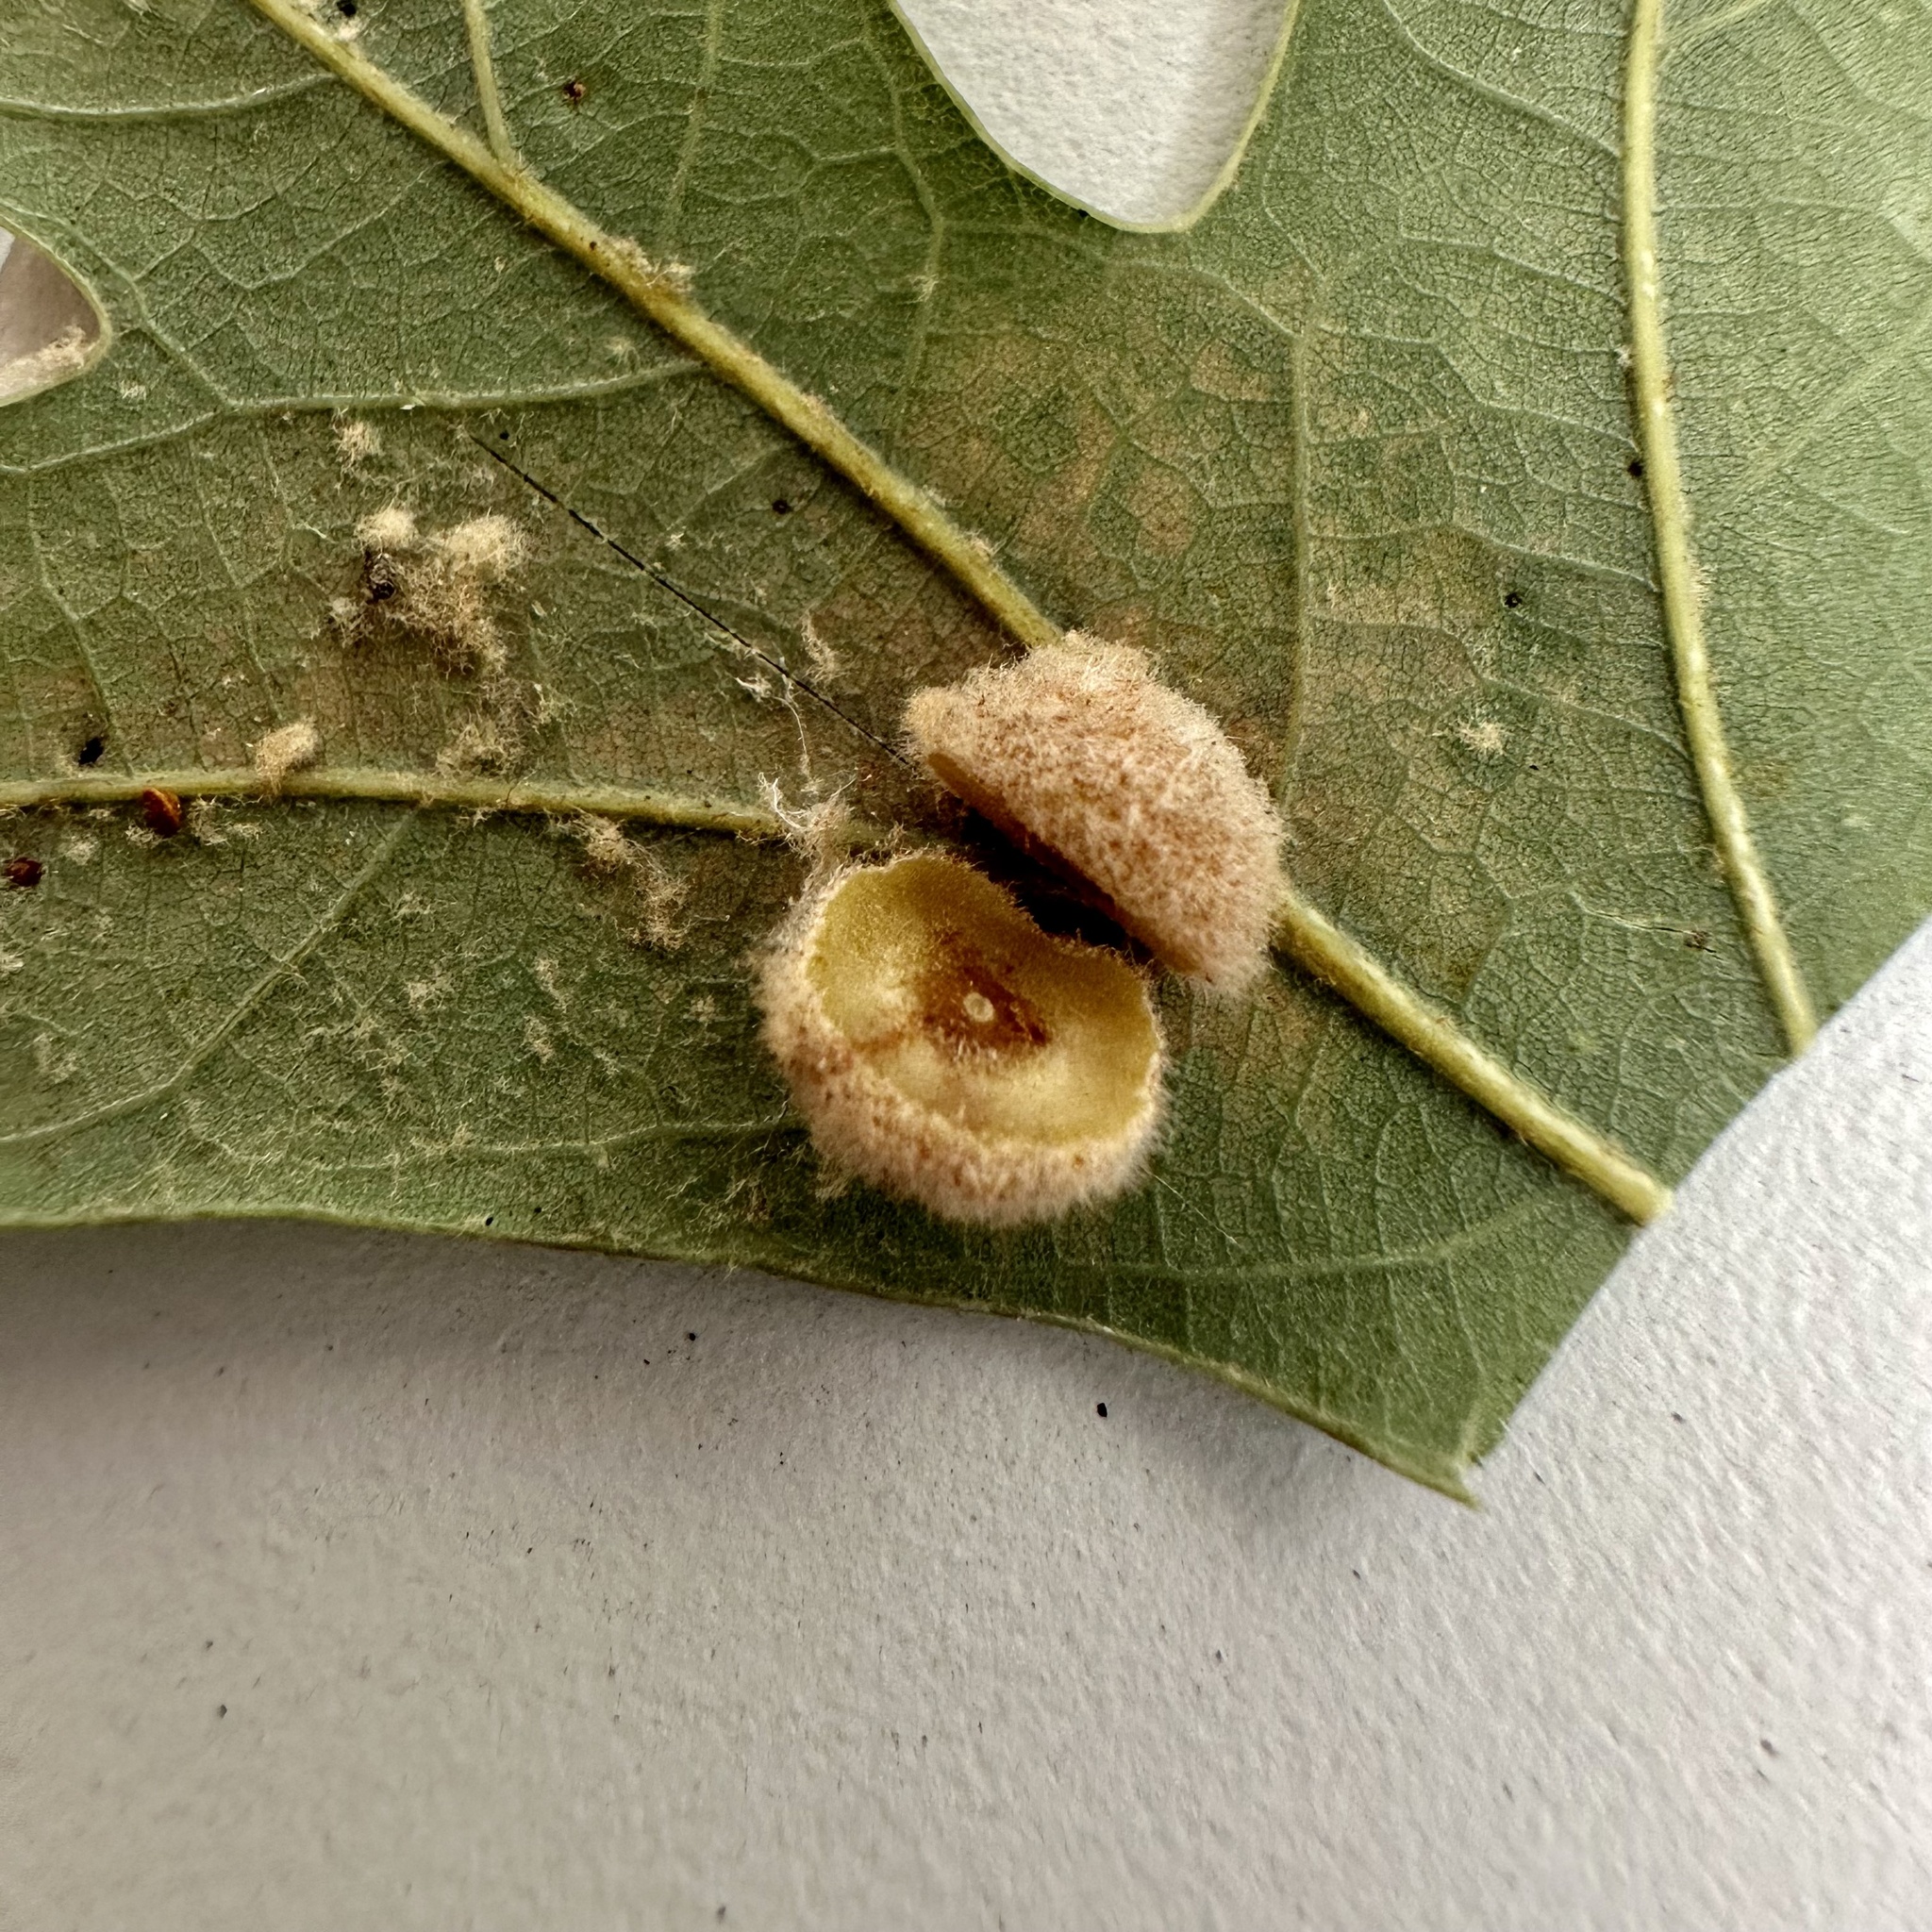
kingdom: Animalia
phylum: Arthropoda
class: Insecta
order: Hymenoptera
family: Cynipidae
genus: Philonix
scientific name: Philonix fulvicollis
